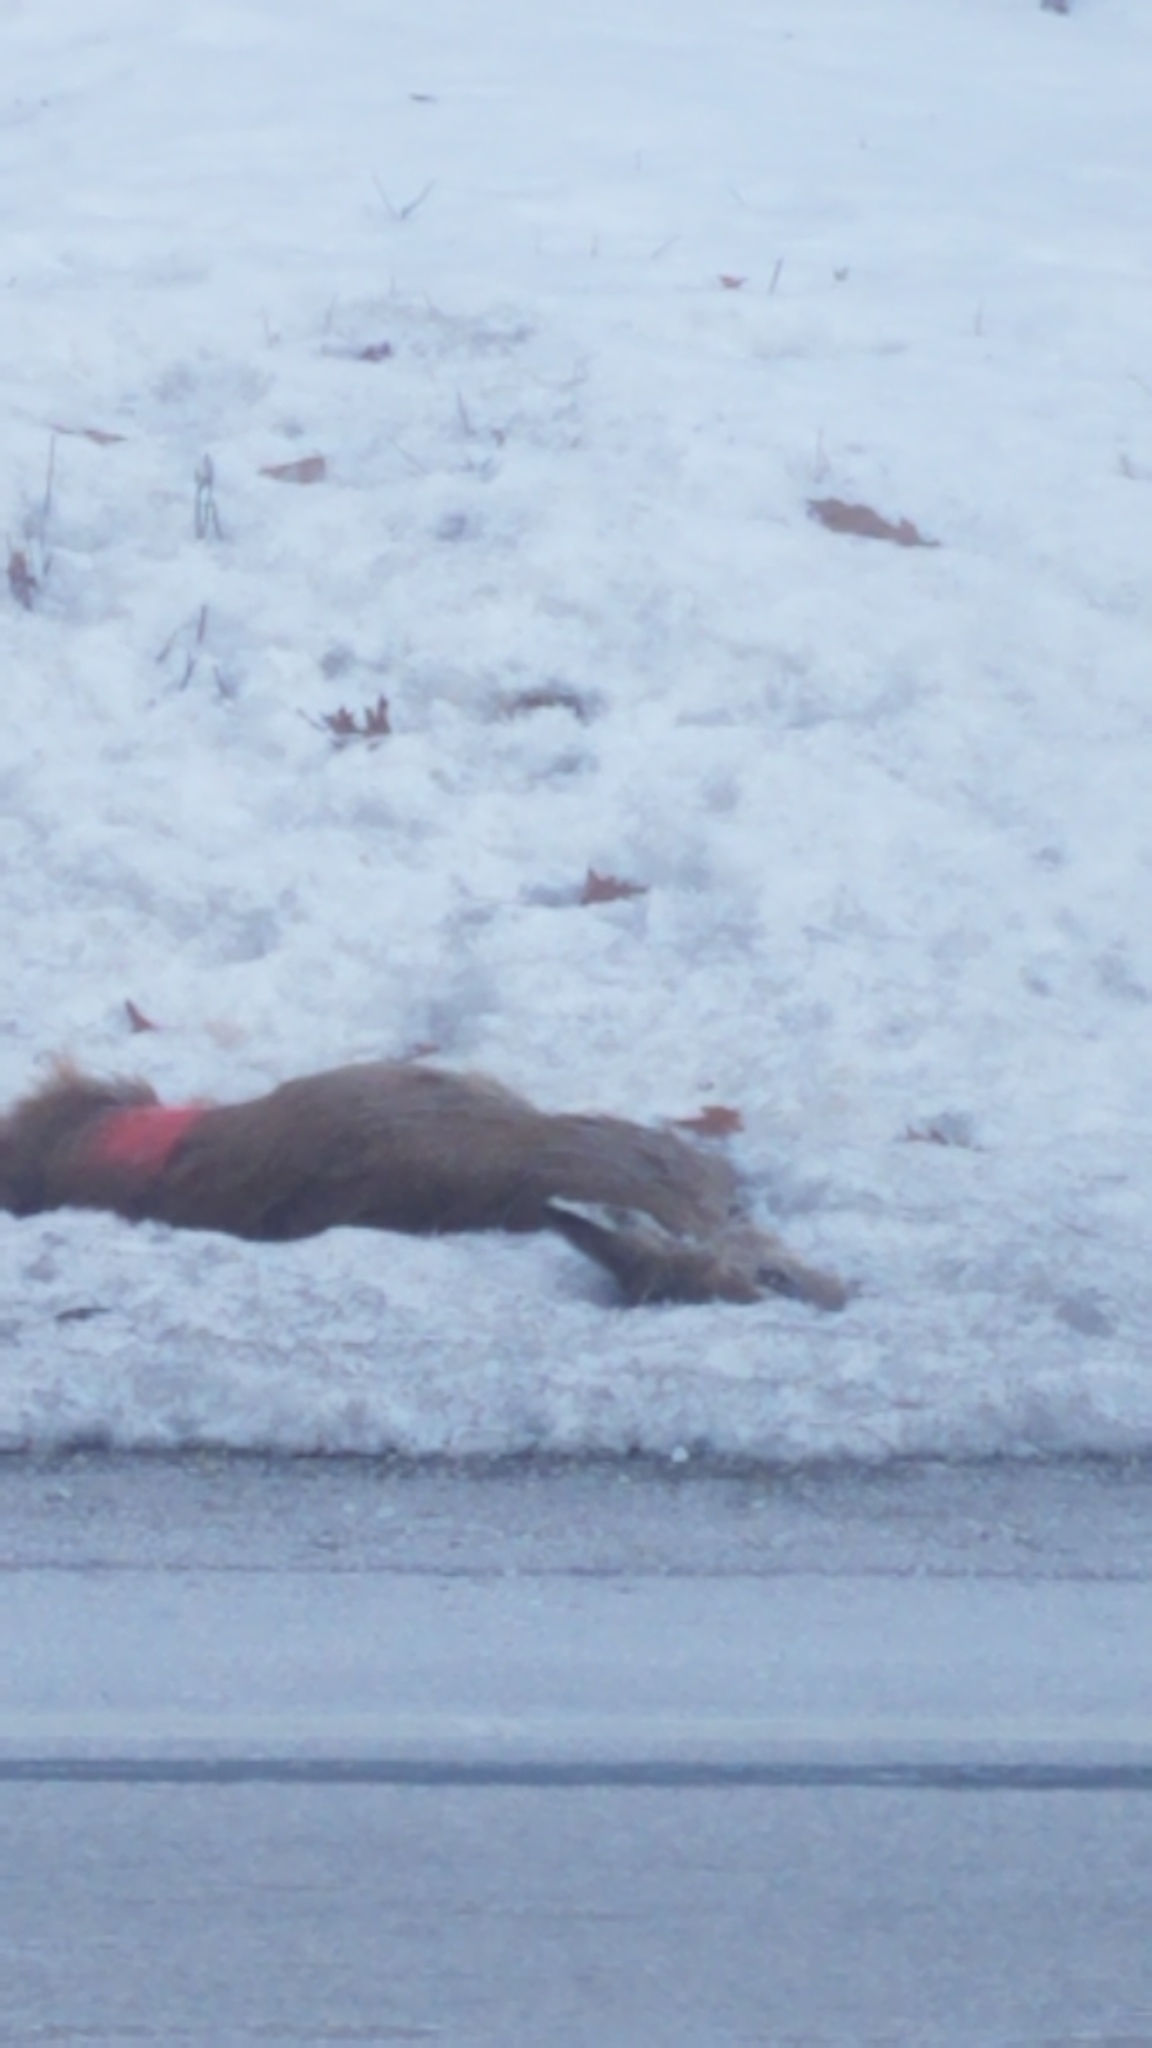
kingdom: Animalia
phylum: Chordata
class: Mammalia
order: Artiodactyla
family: Cervidae
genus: Odocoileus
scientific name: Odocoileus virginianus
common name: White-tailed deer
